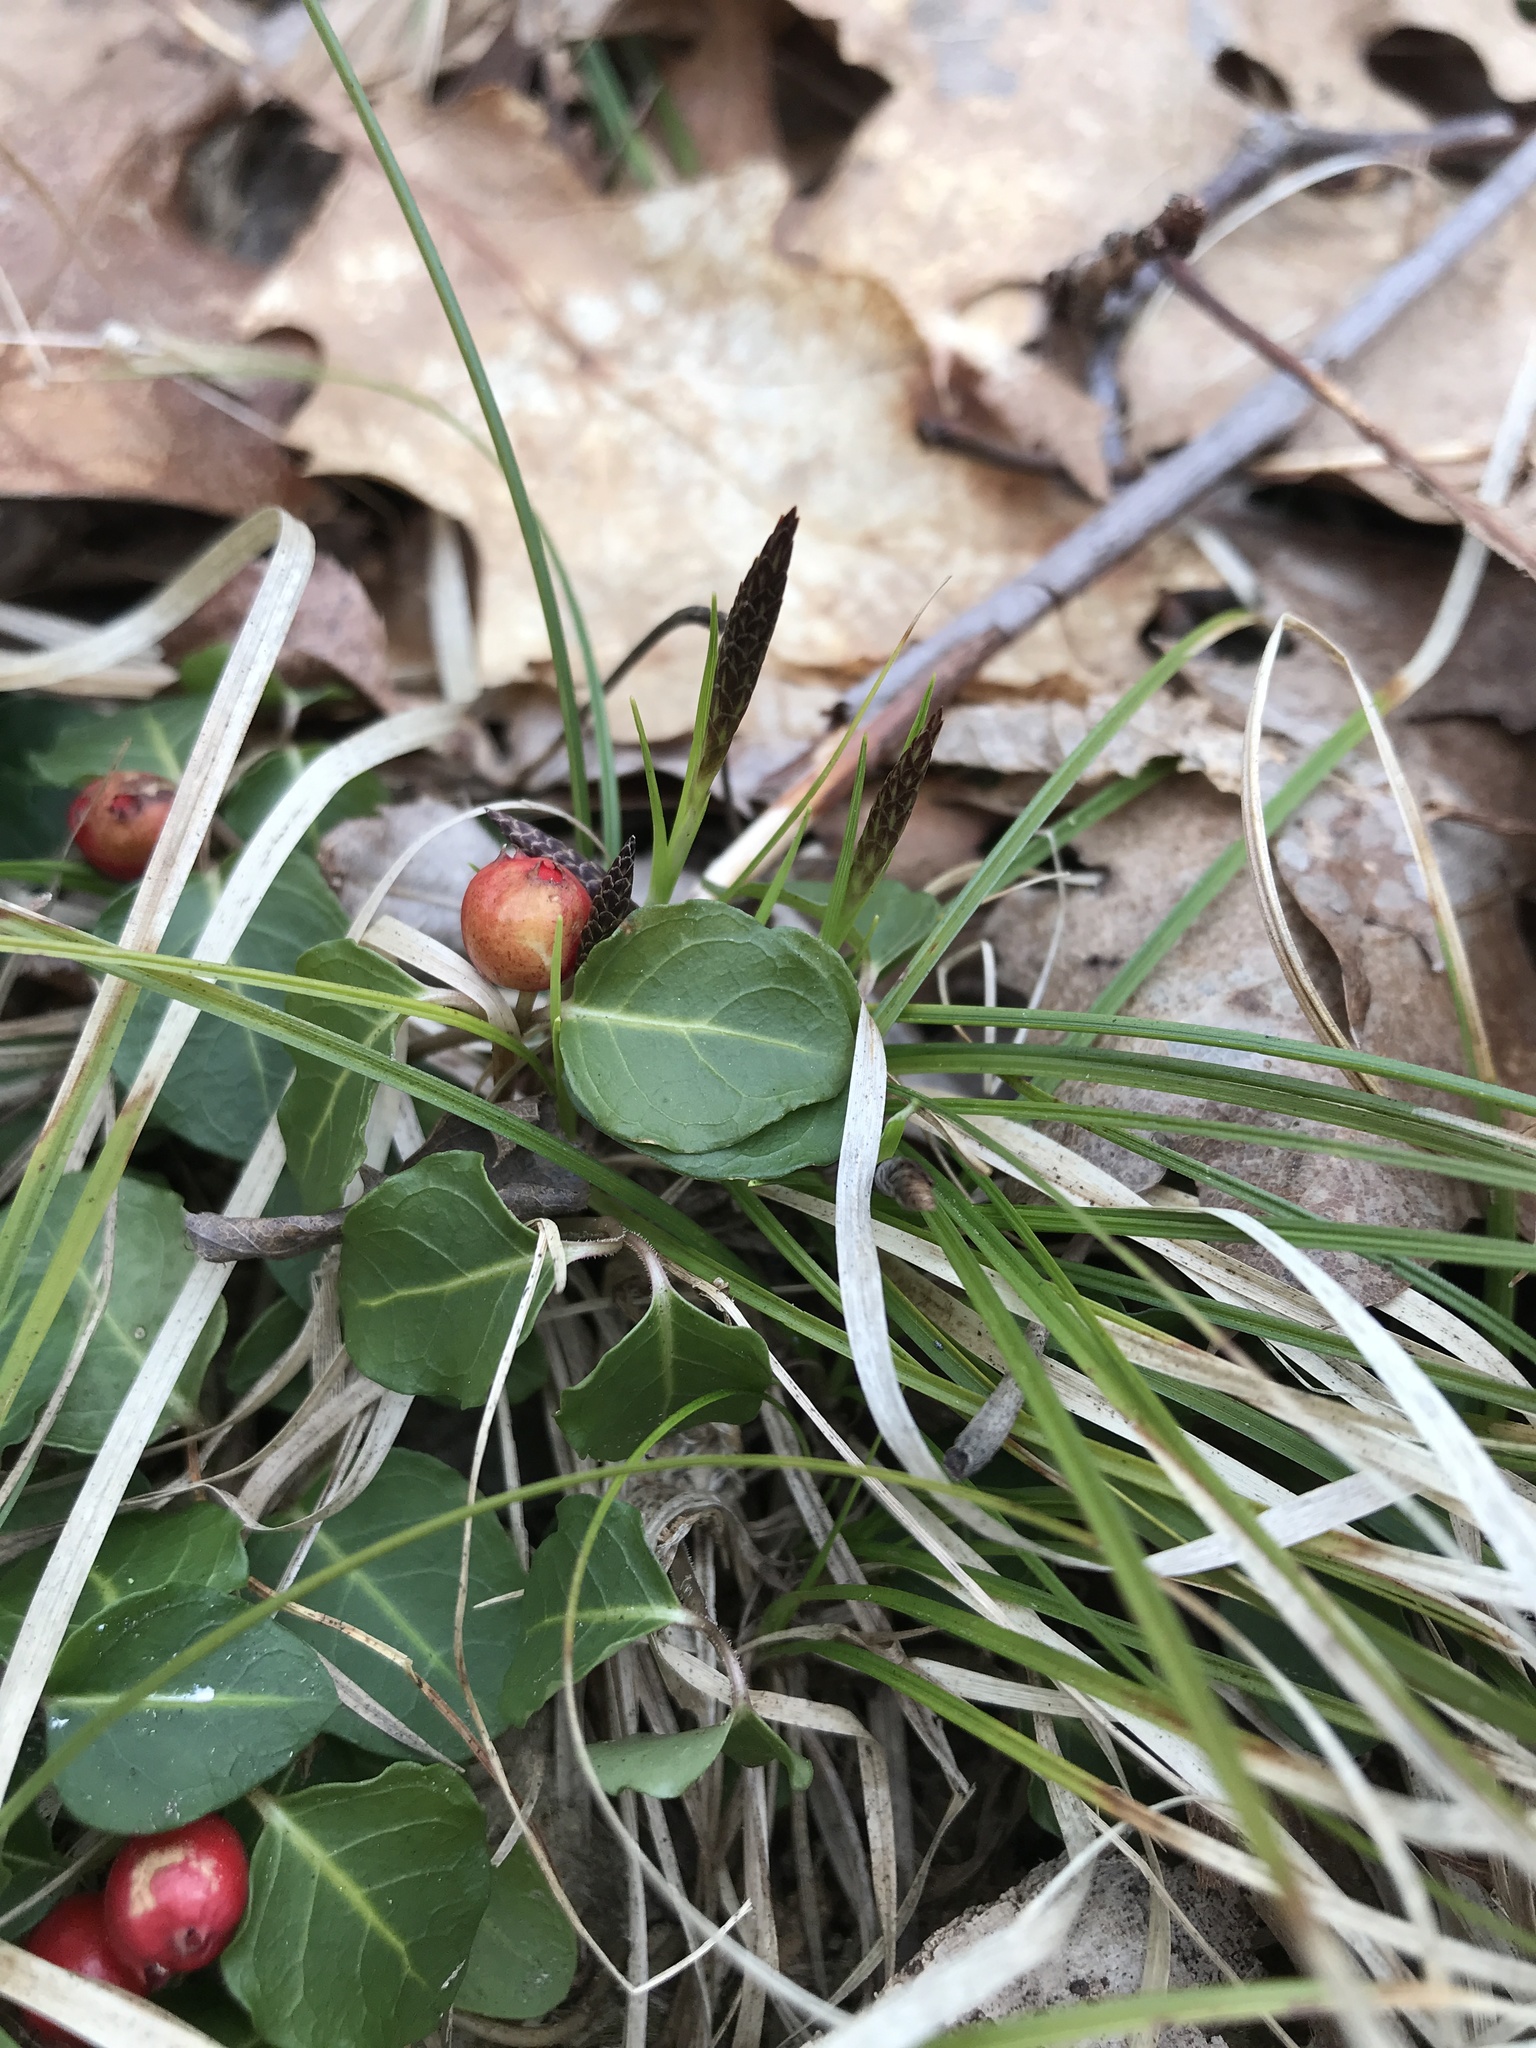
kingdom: Plantae
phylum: Tracheophyta
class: Liliopsida
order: Poales
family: Cyperaceae
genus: Carex
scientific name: Carex pensylvanica
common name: Common oak sedge
